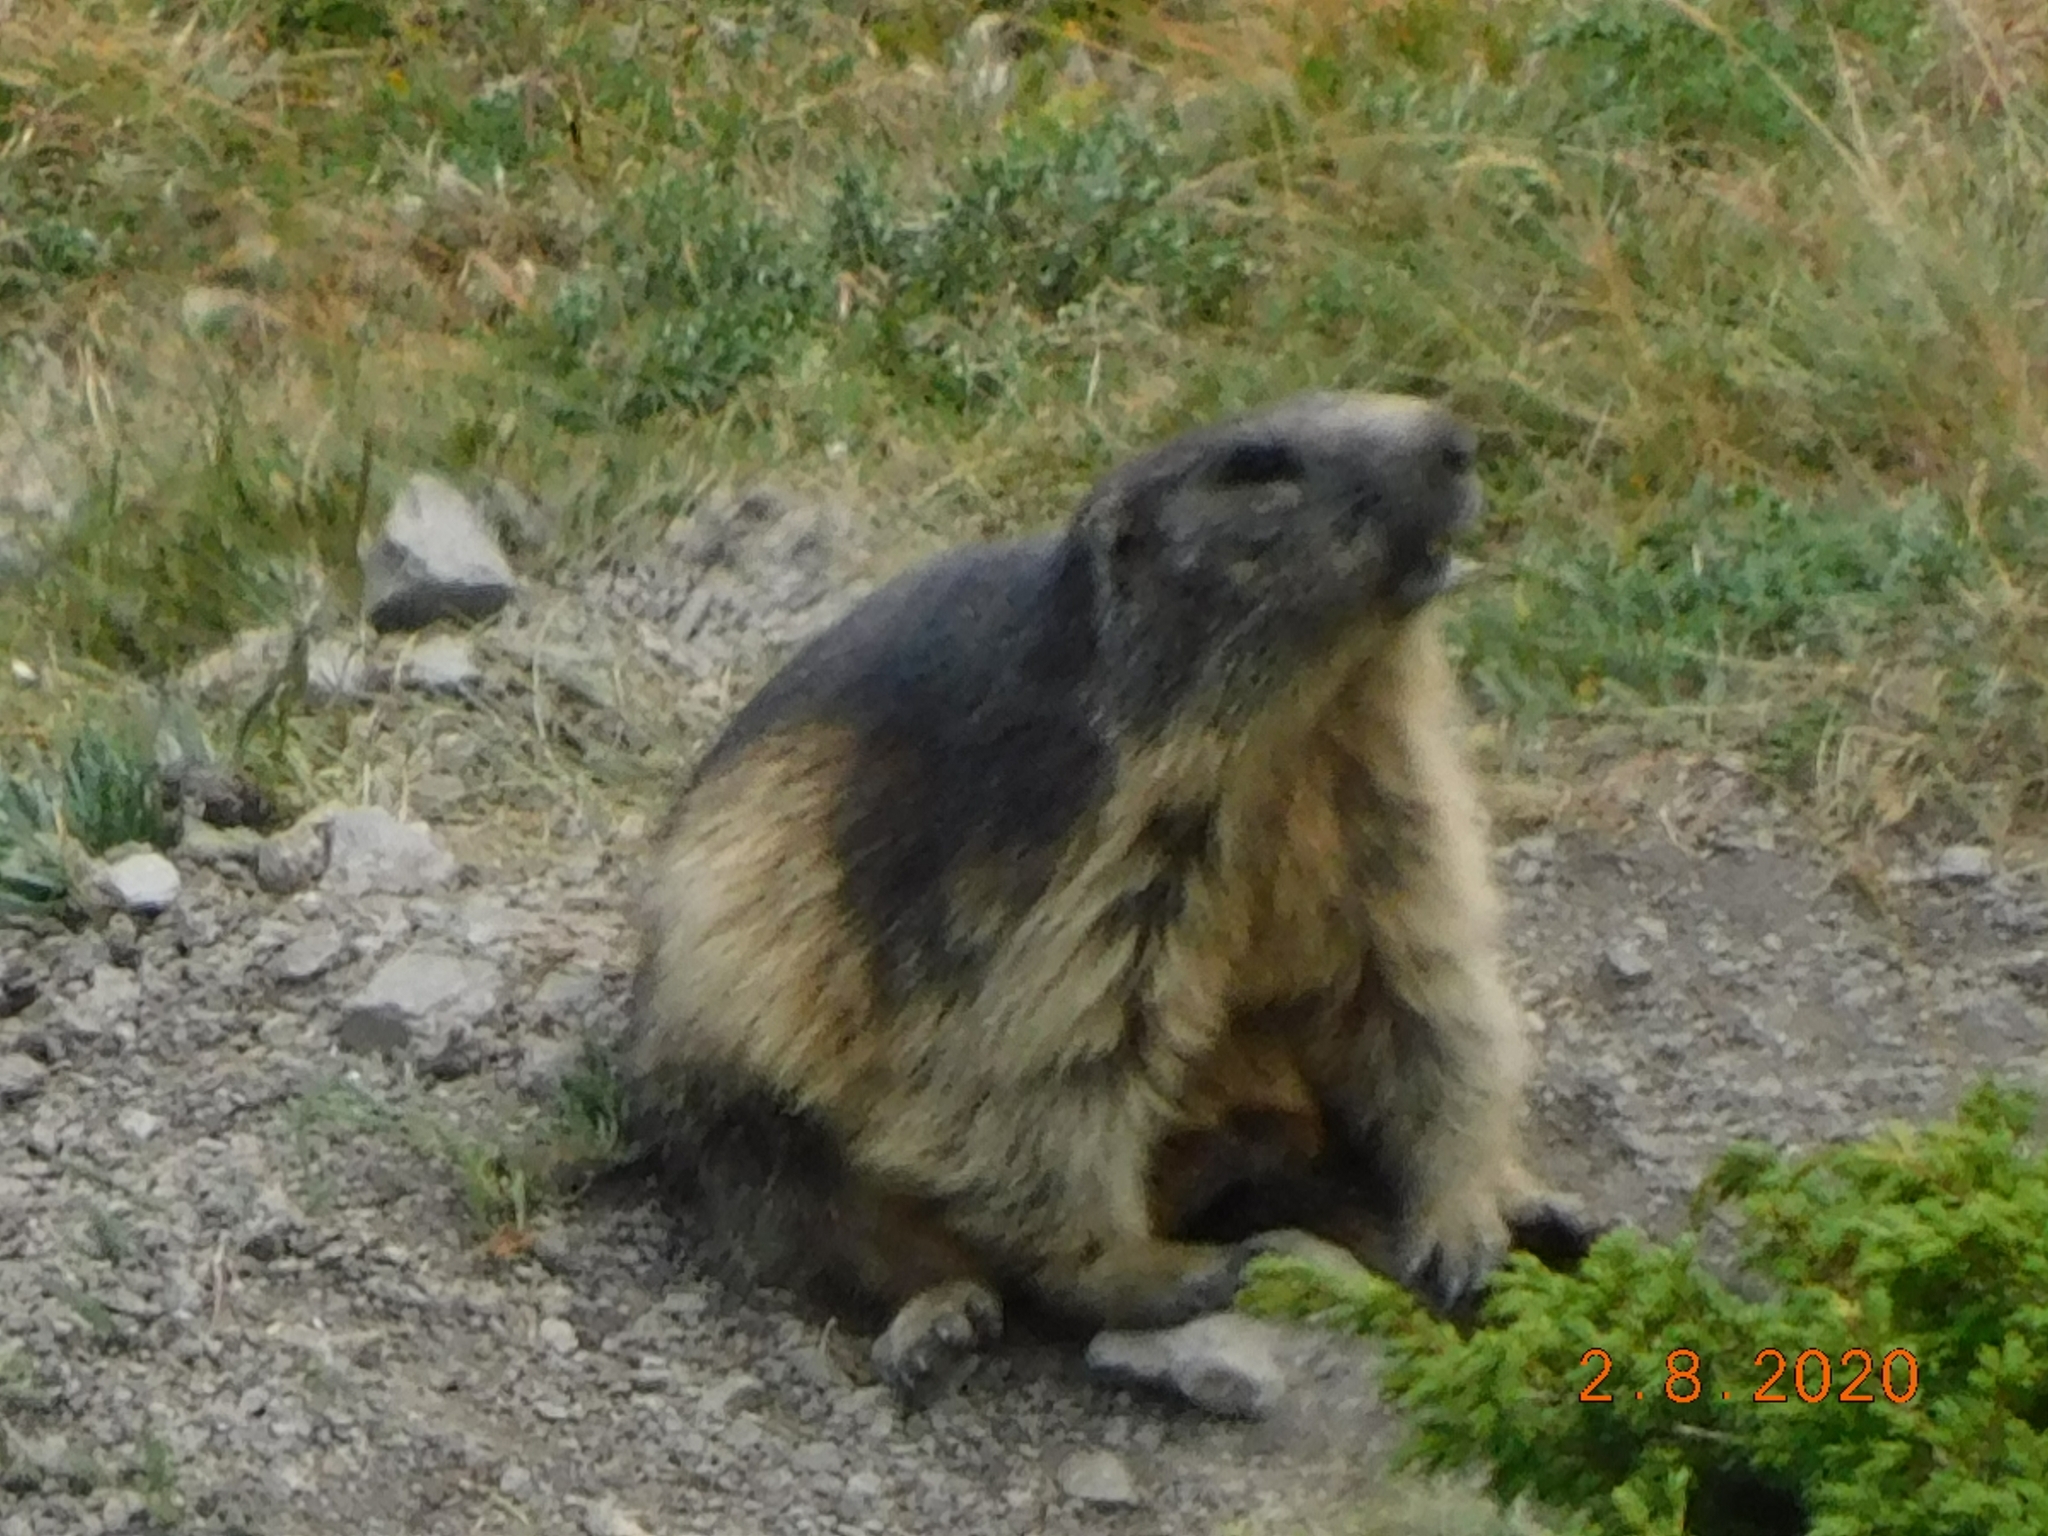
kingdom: Animalia
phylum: Chordata
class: Mammalia
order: Rodentia
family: Sciuridae
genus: Marmota
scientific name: Marmota marmota
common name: Alpine marmot
